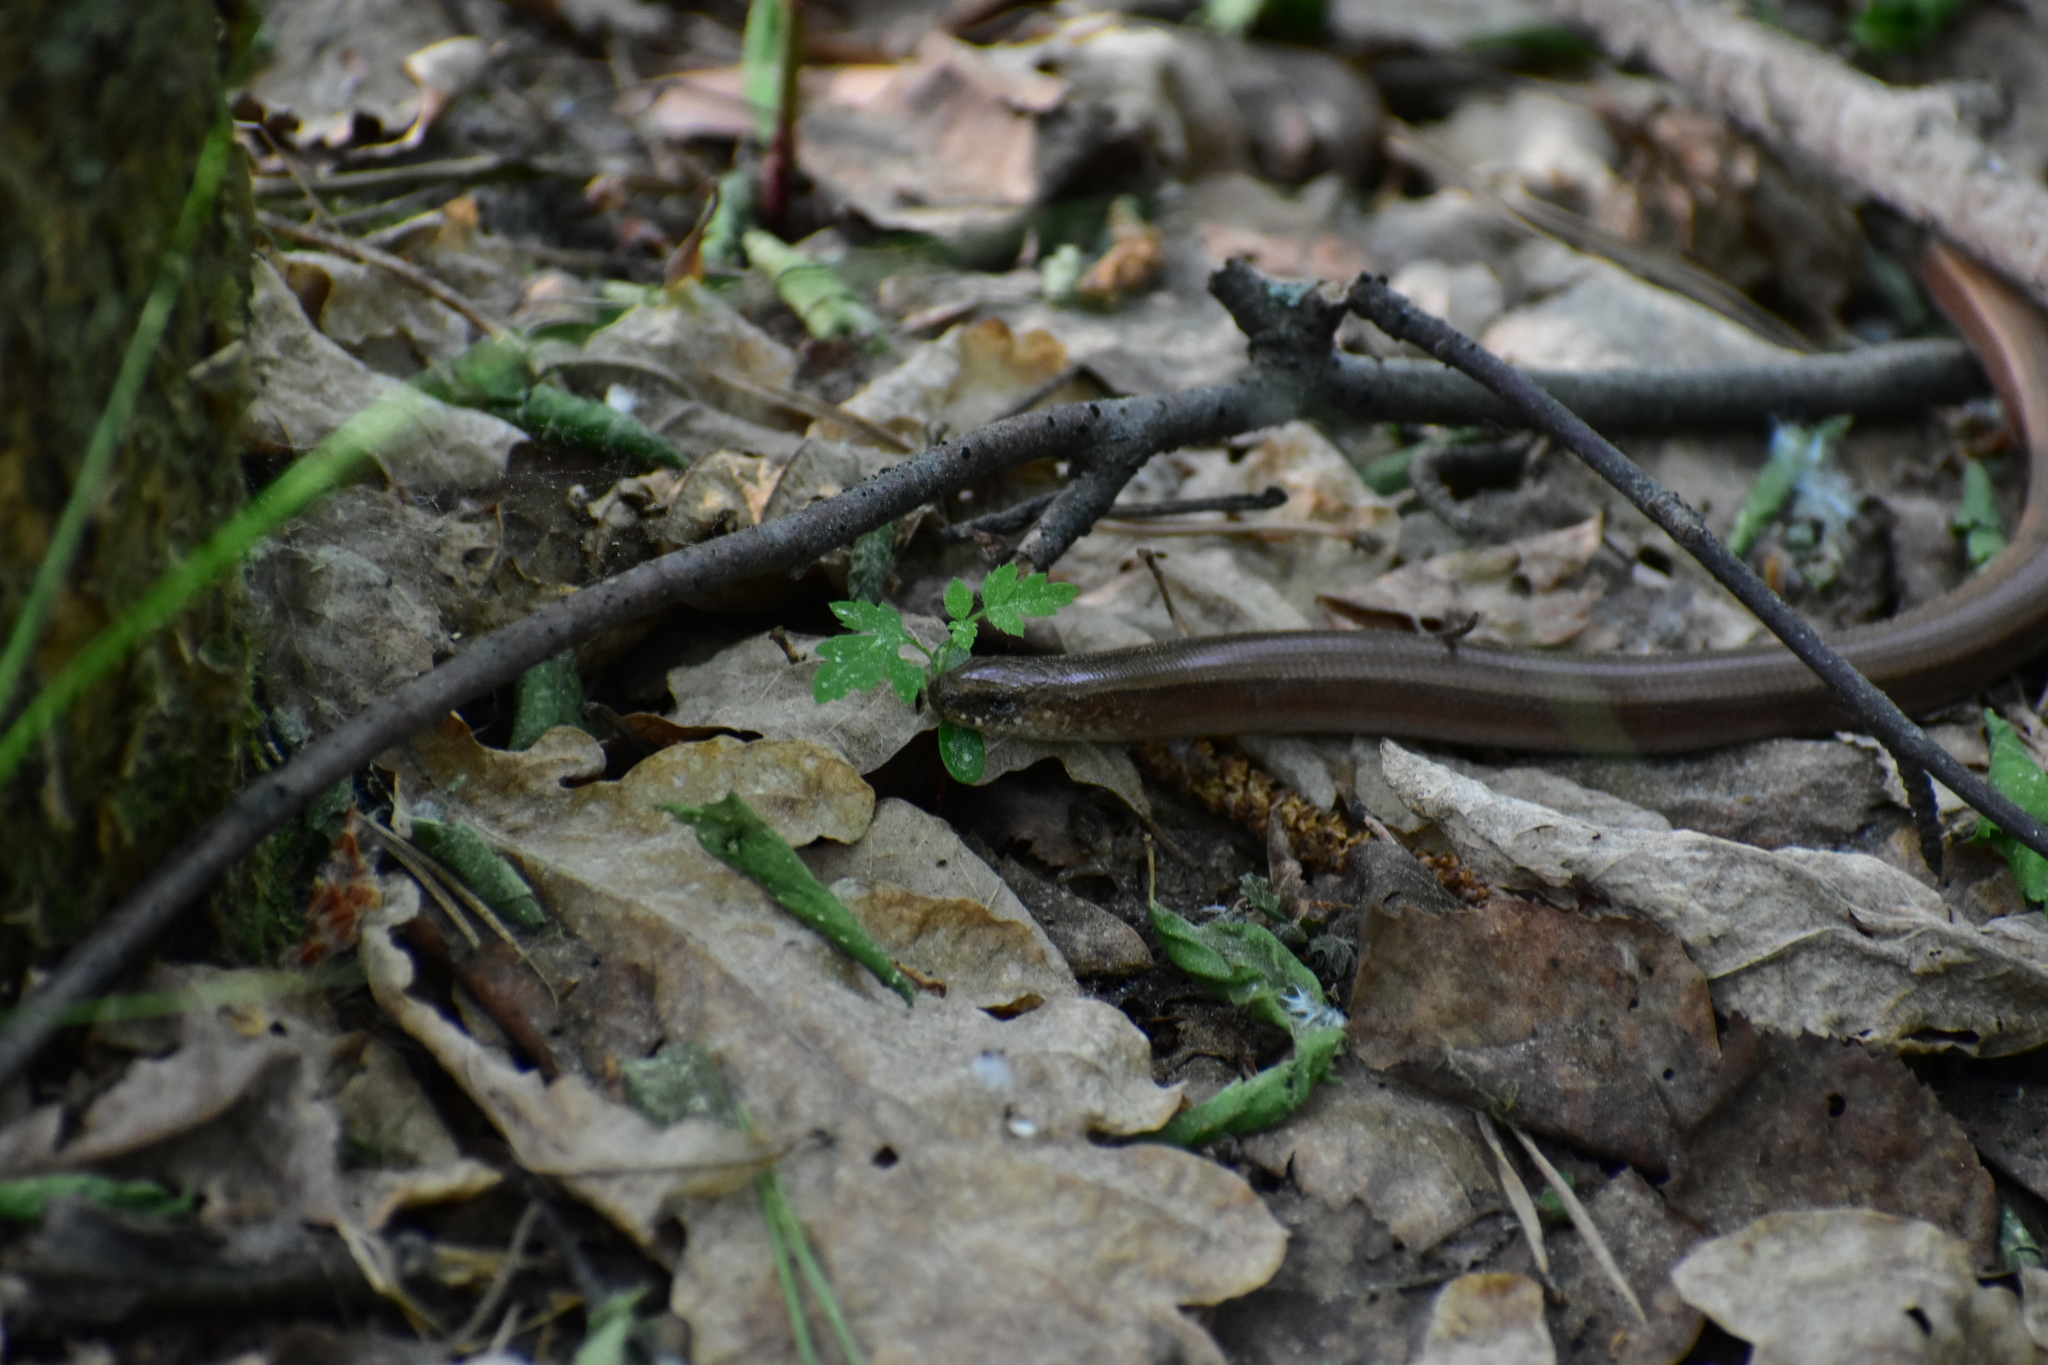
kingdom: Animalia
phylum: Chordata
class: Squamata
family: Anguidae
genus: Anguis
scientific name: Anguis colchica
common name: Slow worm
